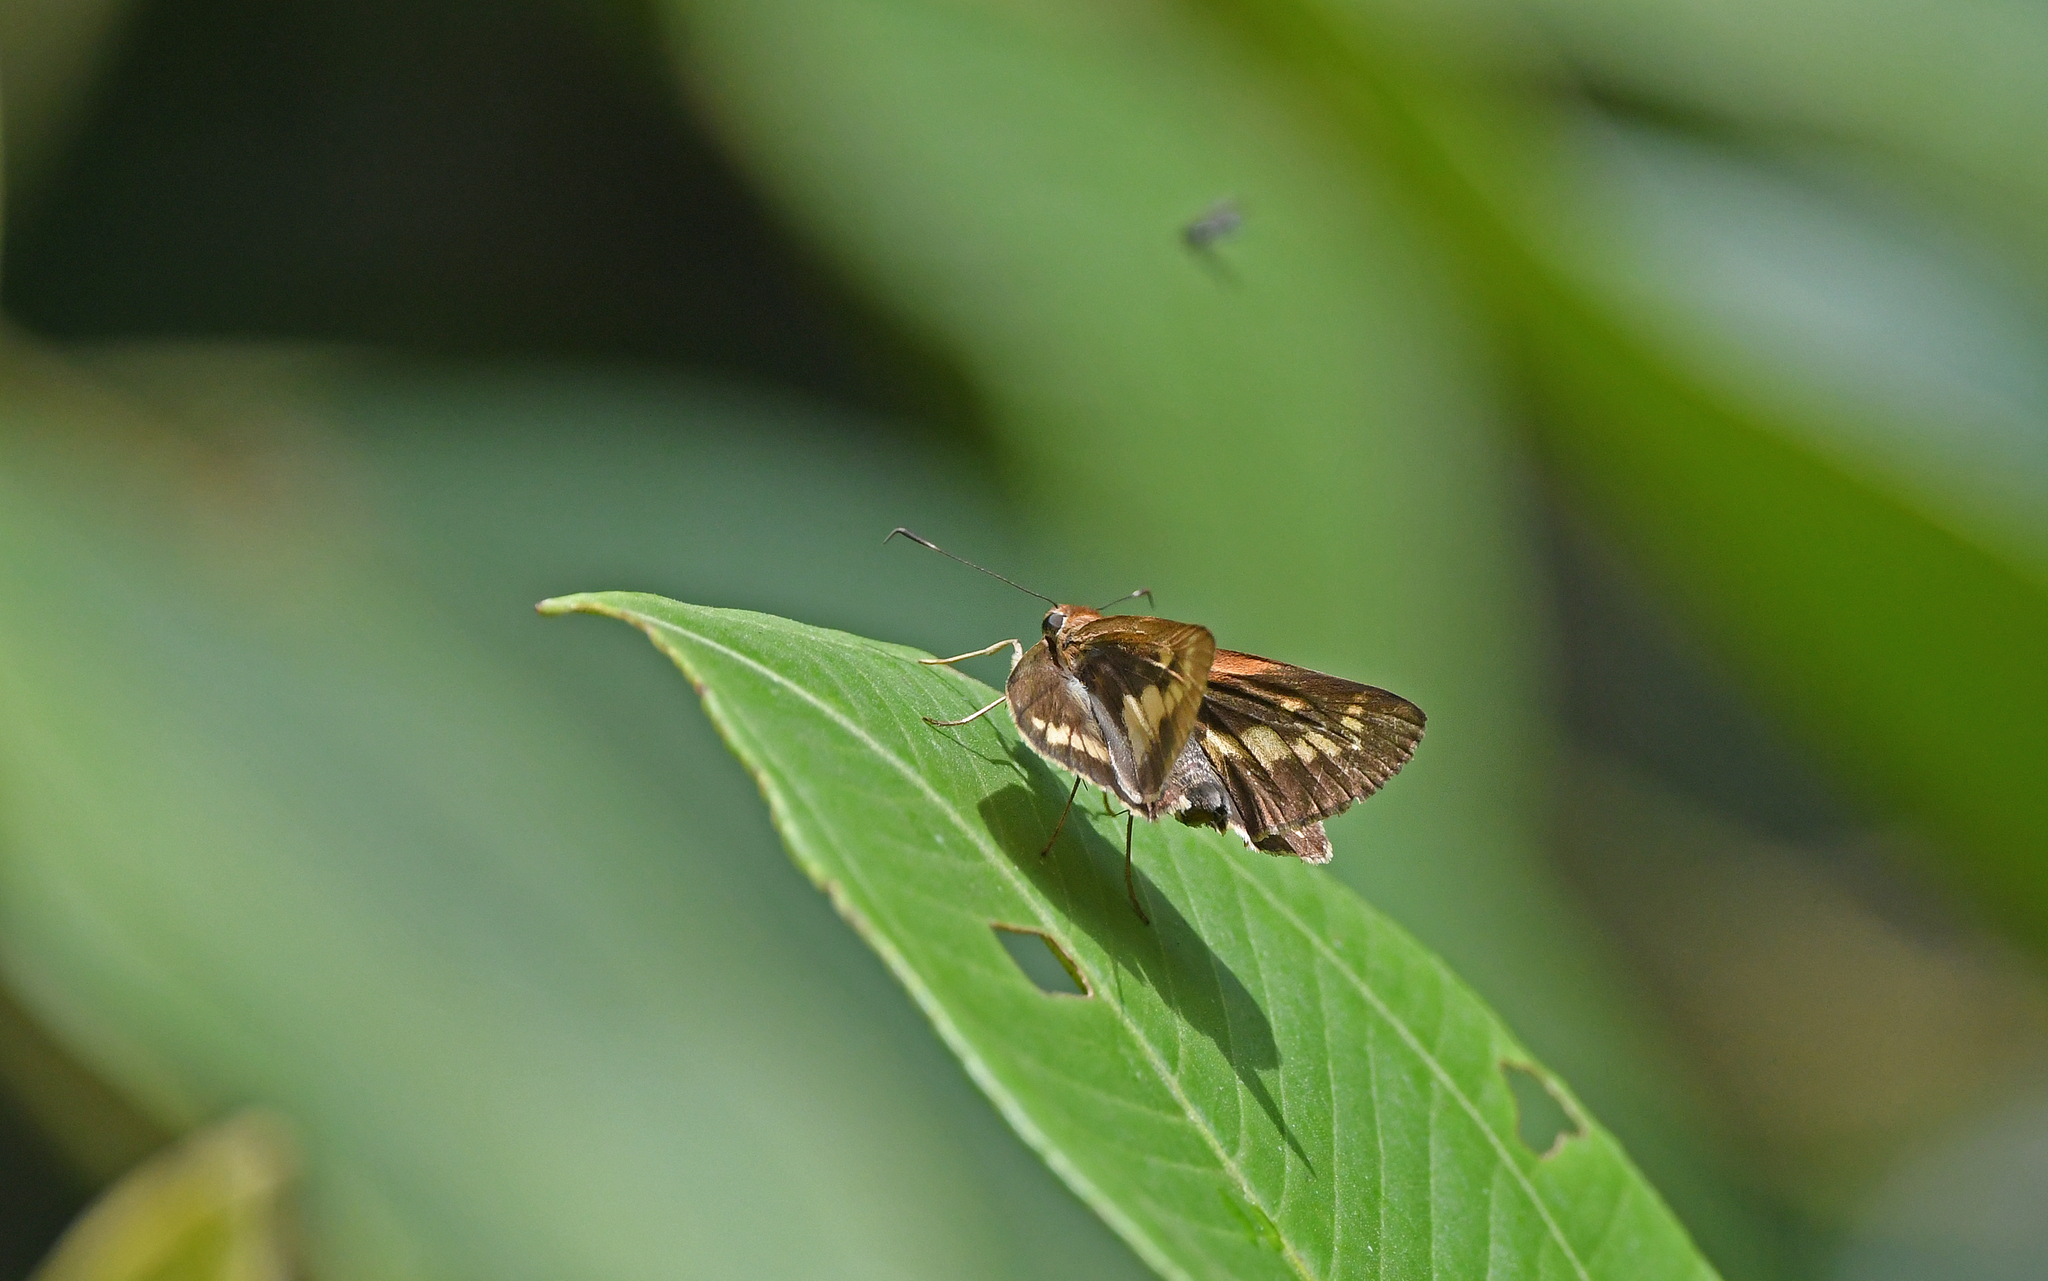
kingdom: Animalia
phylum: Arthropoda
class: Insecta
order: Lepidoptera
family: Hesperiidae
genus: Racta
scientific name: Racta plasma
